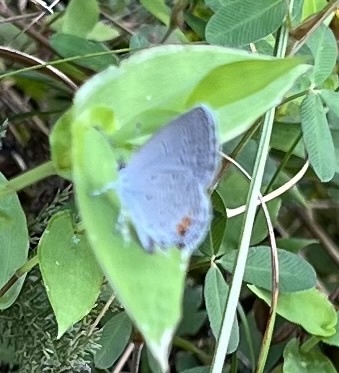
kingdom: Animalia
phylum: Arthropoda
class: Insecta
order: Lepidoptera
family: Lycaenidae
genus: Elkalyce
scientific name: Elkalyce comyntas
